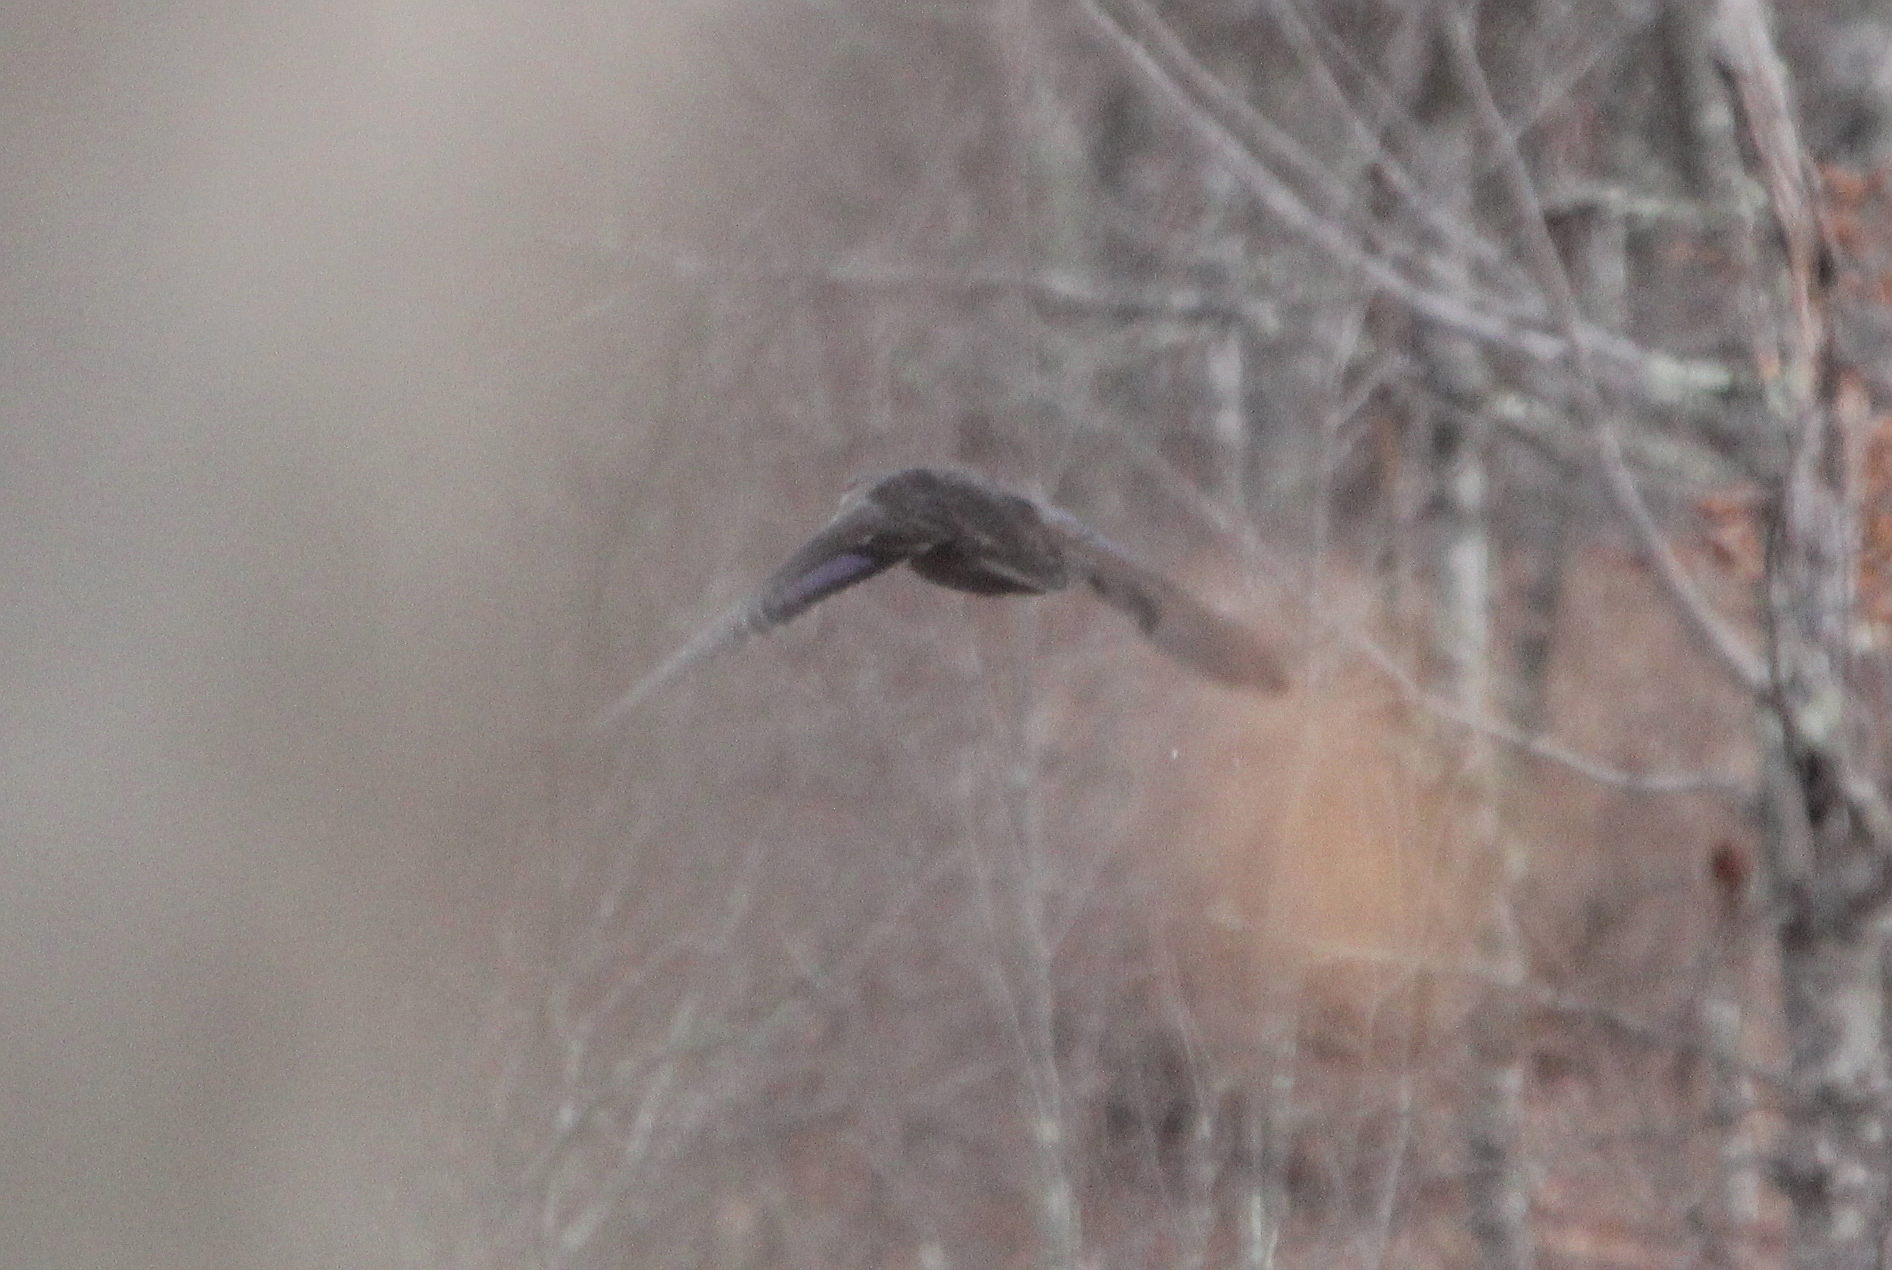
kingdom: Animalia
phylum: Chordata
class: Aves
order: Anseriformes
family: Anatidae
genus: Anas
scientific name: Anas rubripes
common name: American black duck
